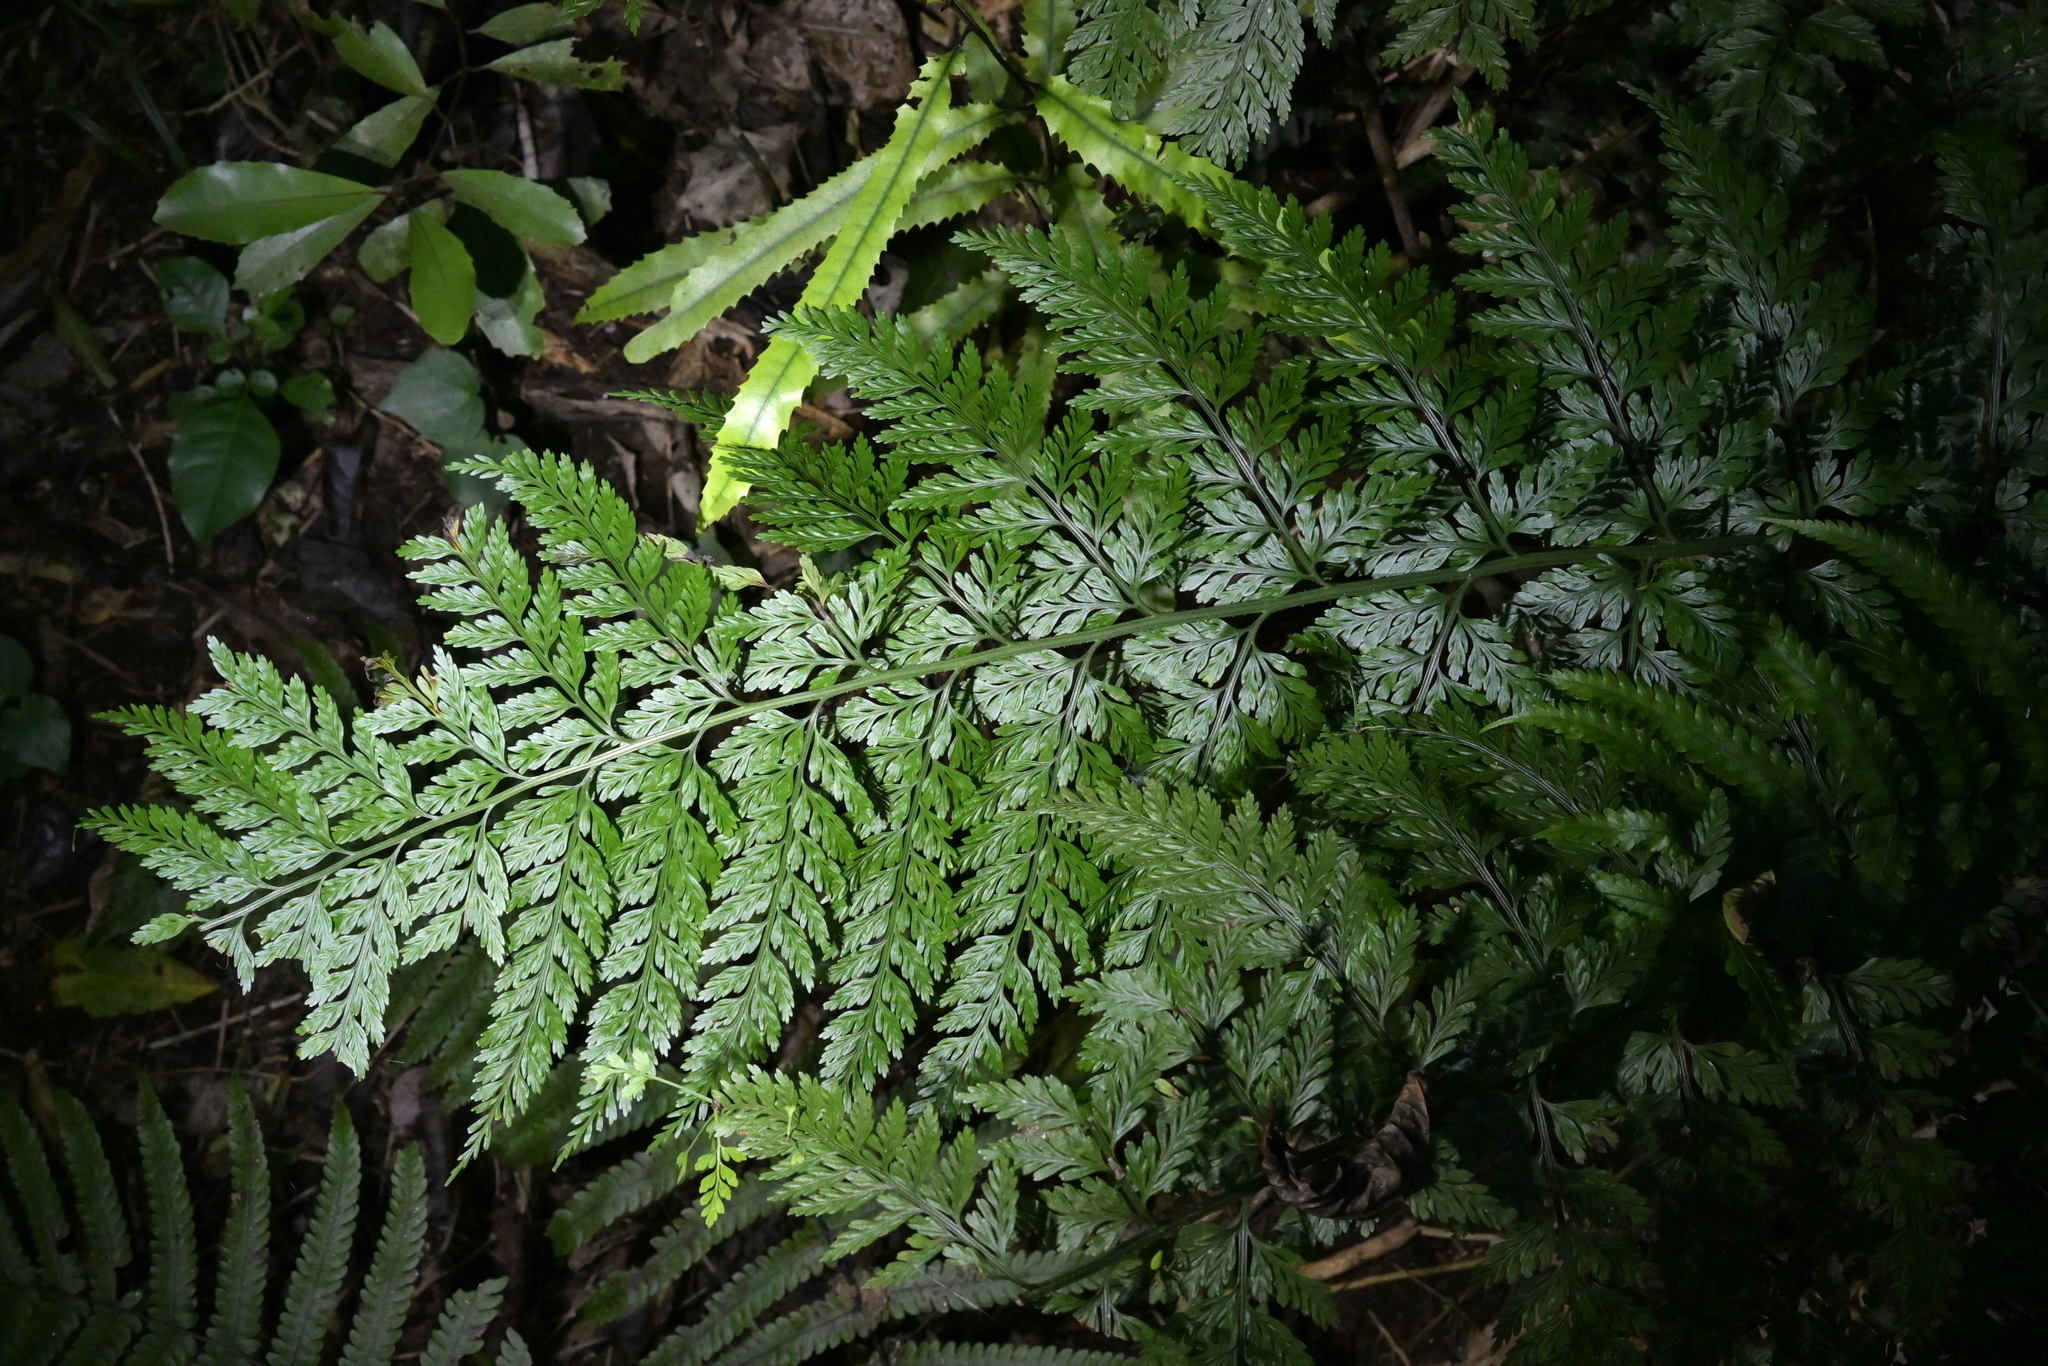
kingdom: Plantae
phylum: Tracheophyta
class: Polypodiopsida
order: Polypodiales
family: Aspleniaceae
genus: Asplenium
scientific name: Asplenium
